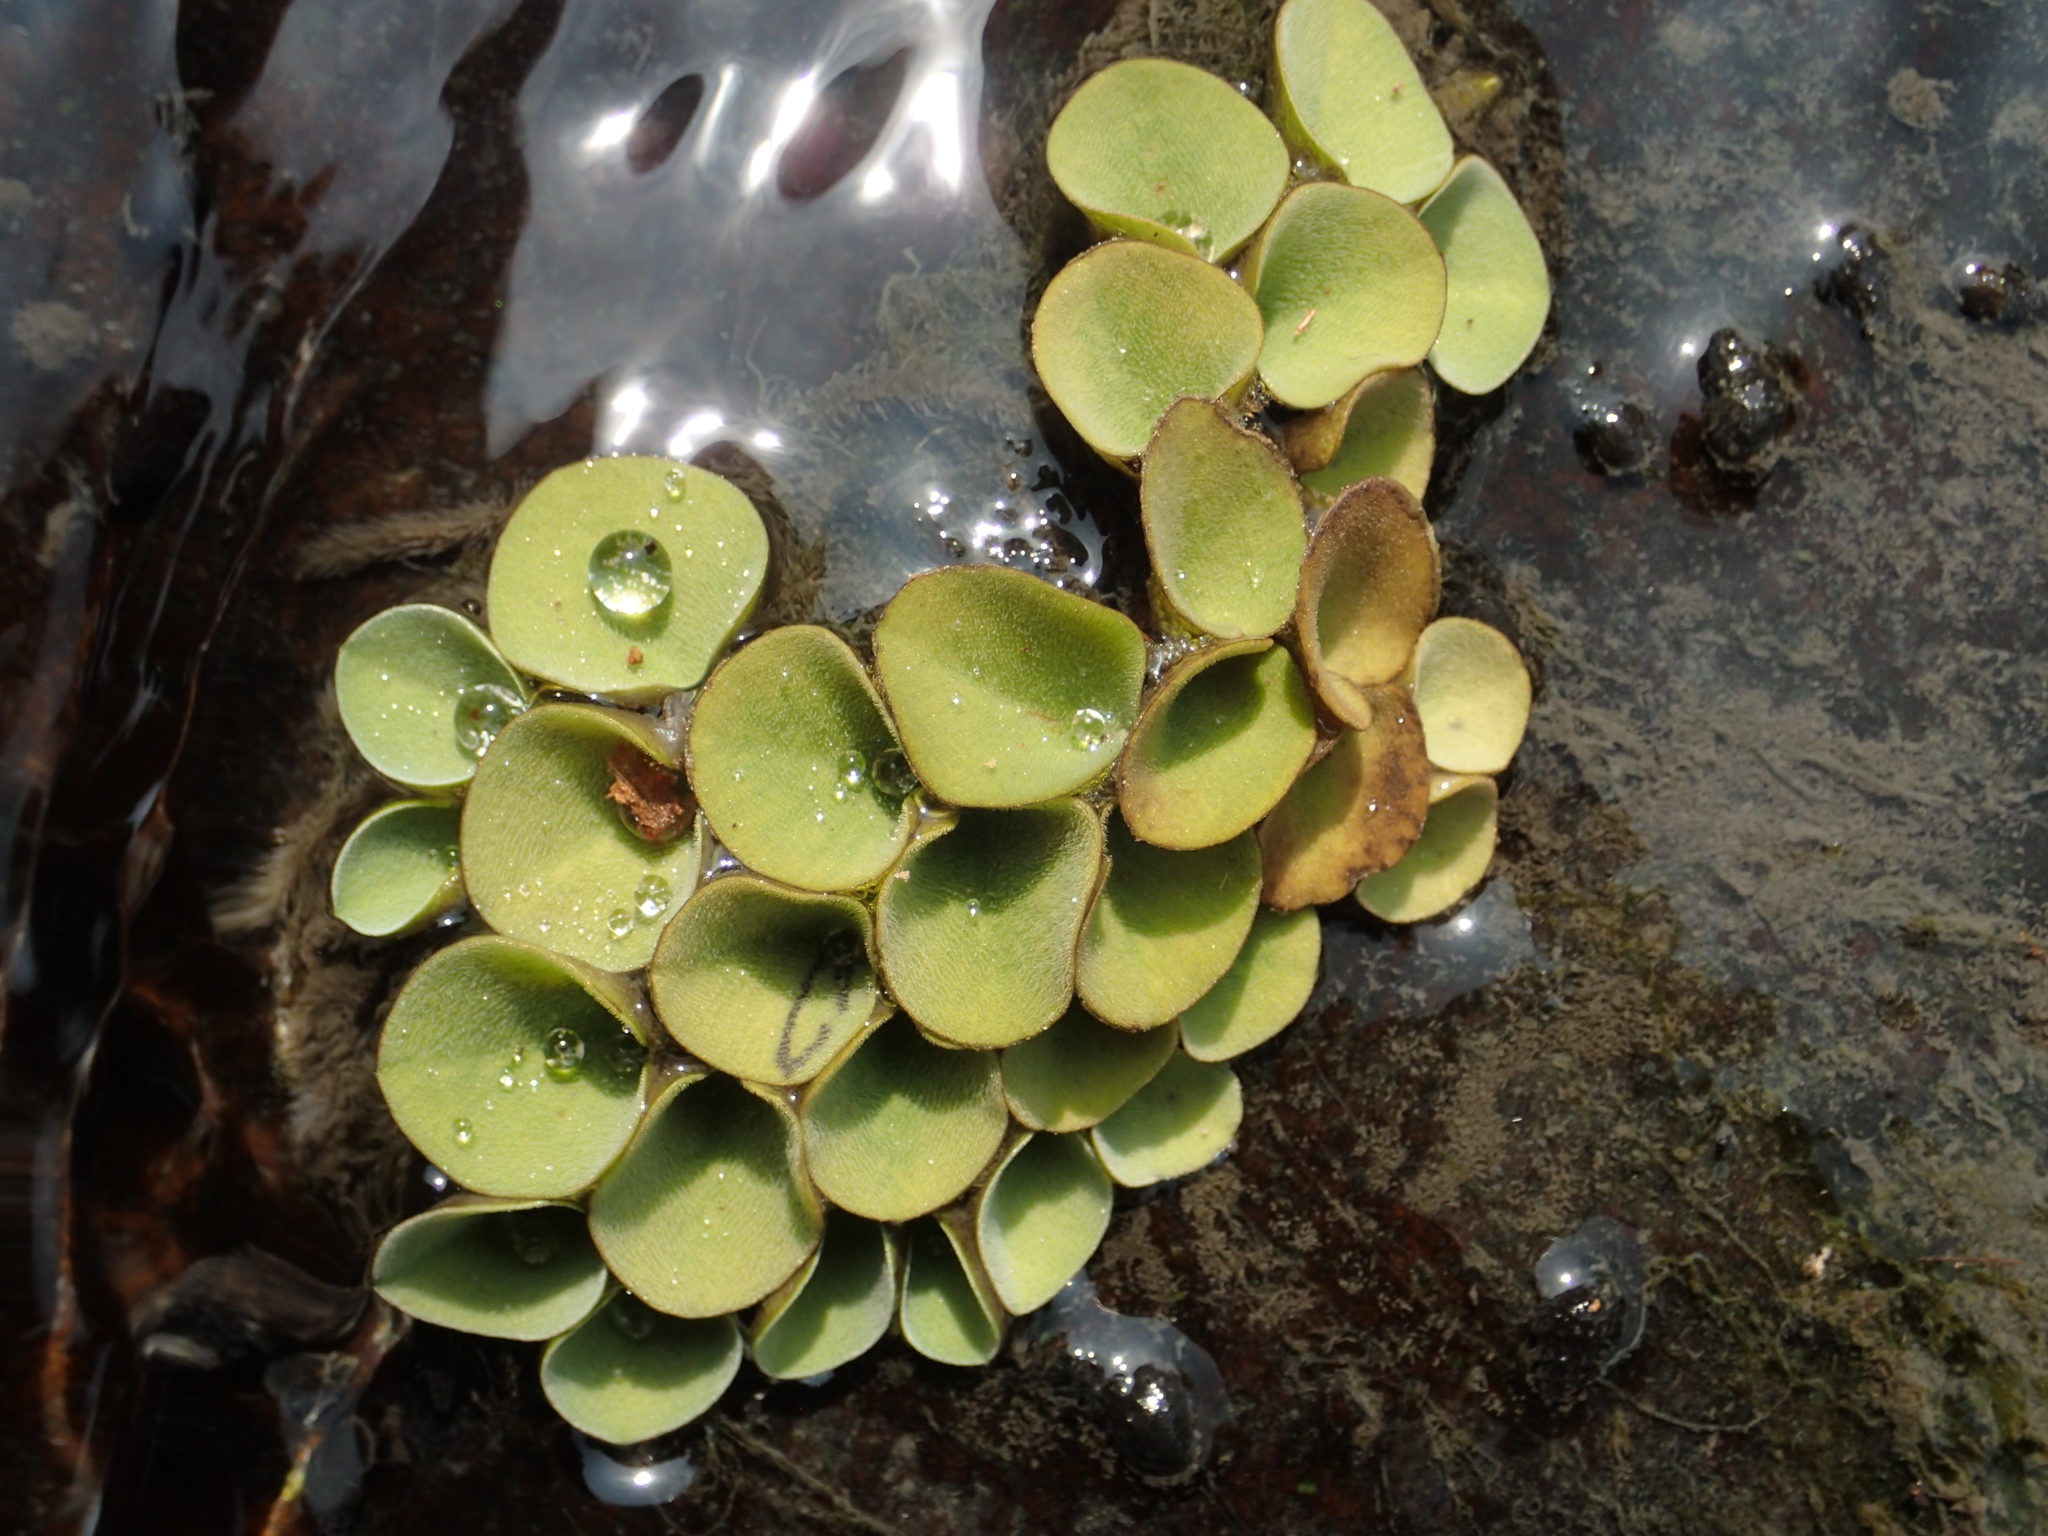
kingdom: Plantae
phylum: Tracheophyta
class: Polypodiopsida
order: Salviniales
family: Salviniaceae
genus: Salvinia
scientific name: Salvinia cucullata
